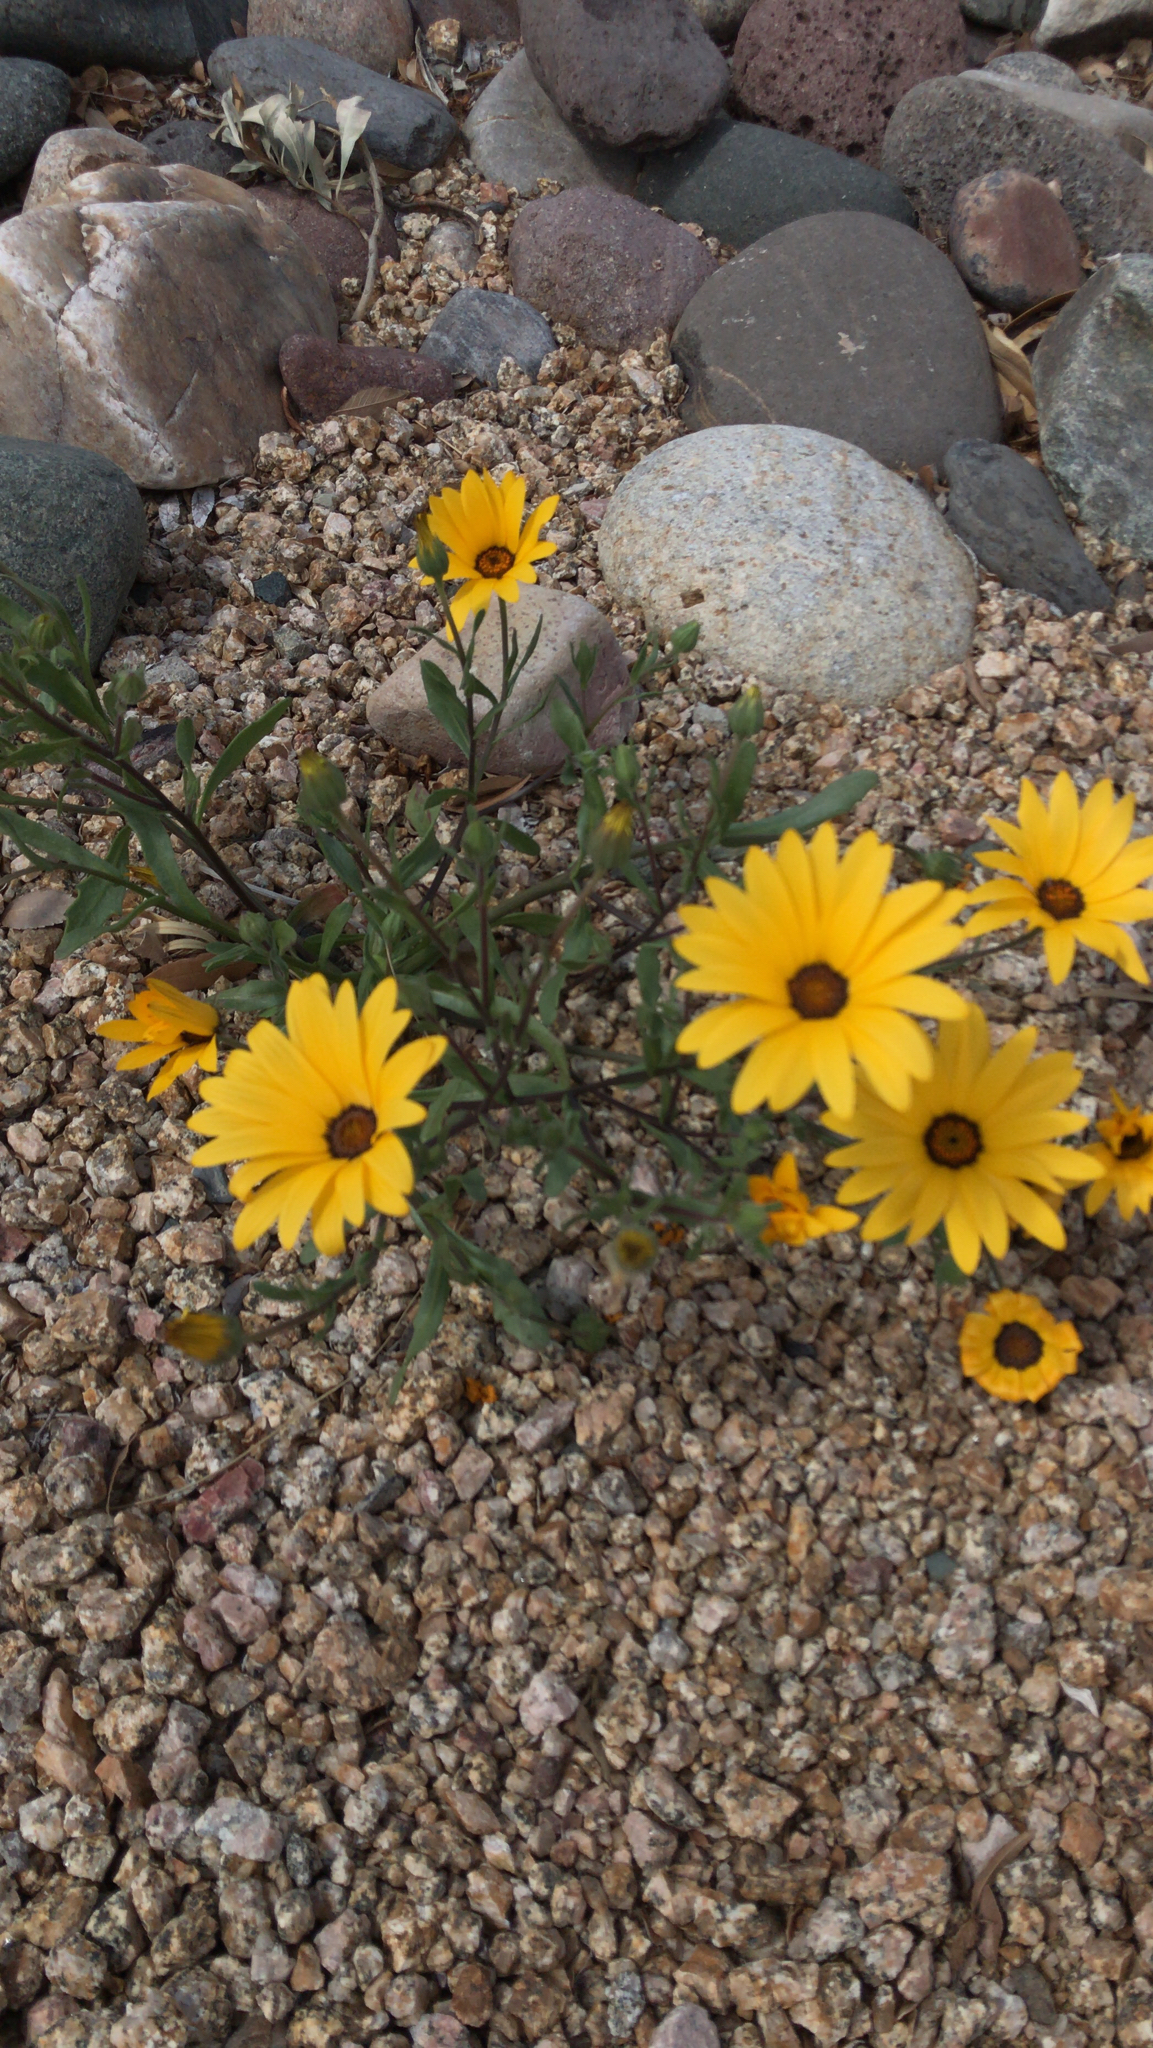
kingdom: Plantae
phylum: Tracheophyta
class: Magnoliopsida
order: Asterales
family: Asteraceae
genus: Dimorphotheca
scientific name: Dimorphotheca sinuata
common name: Glandular cape marigold
